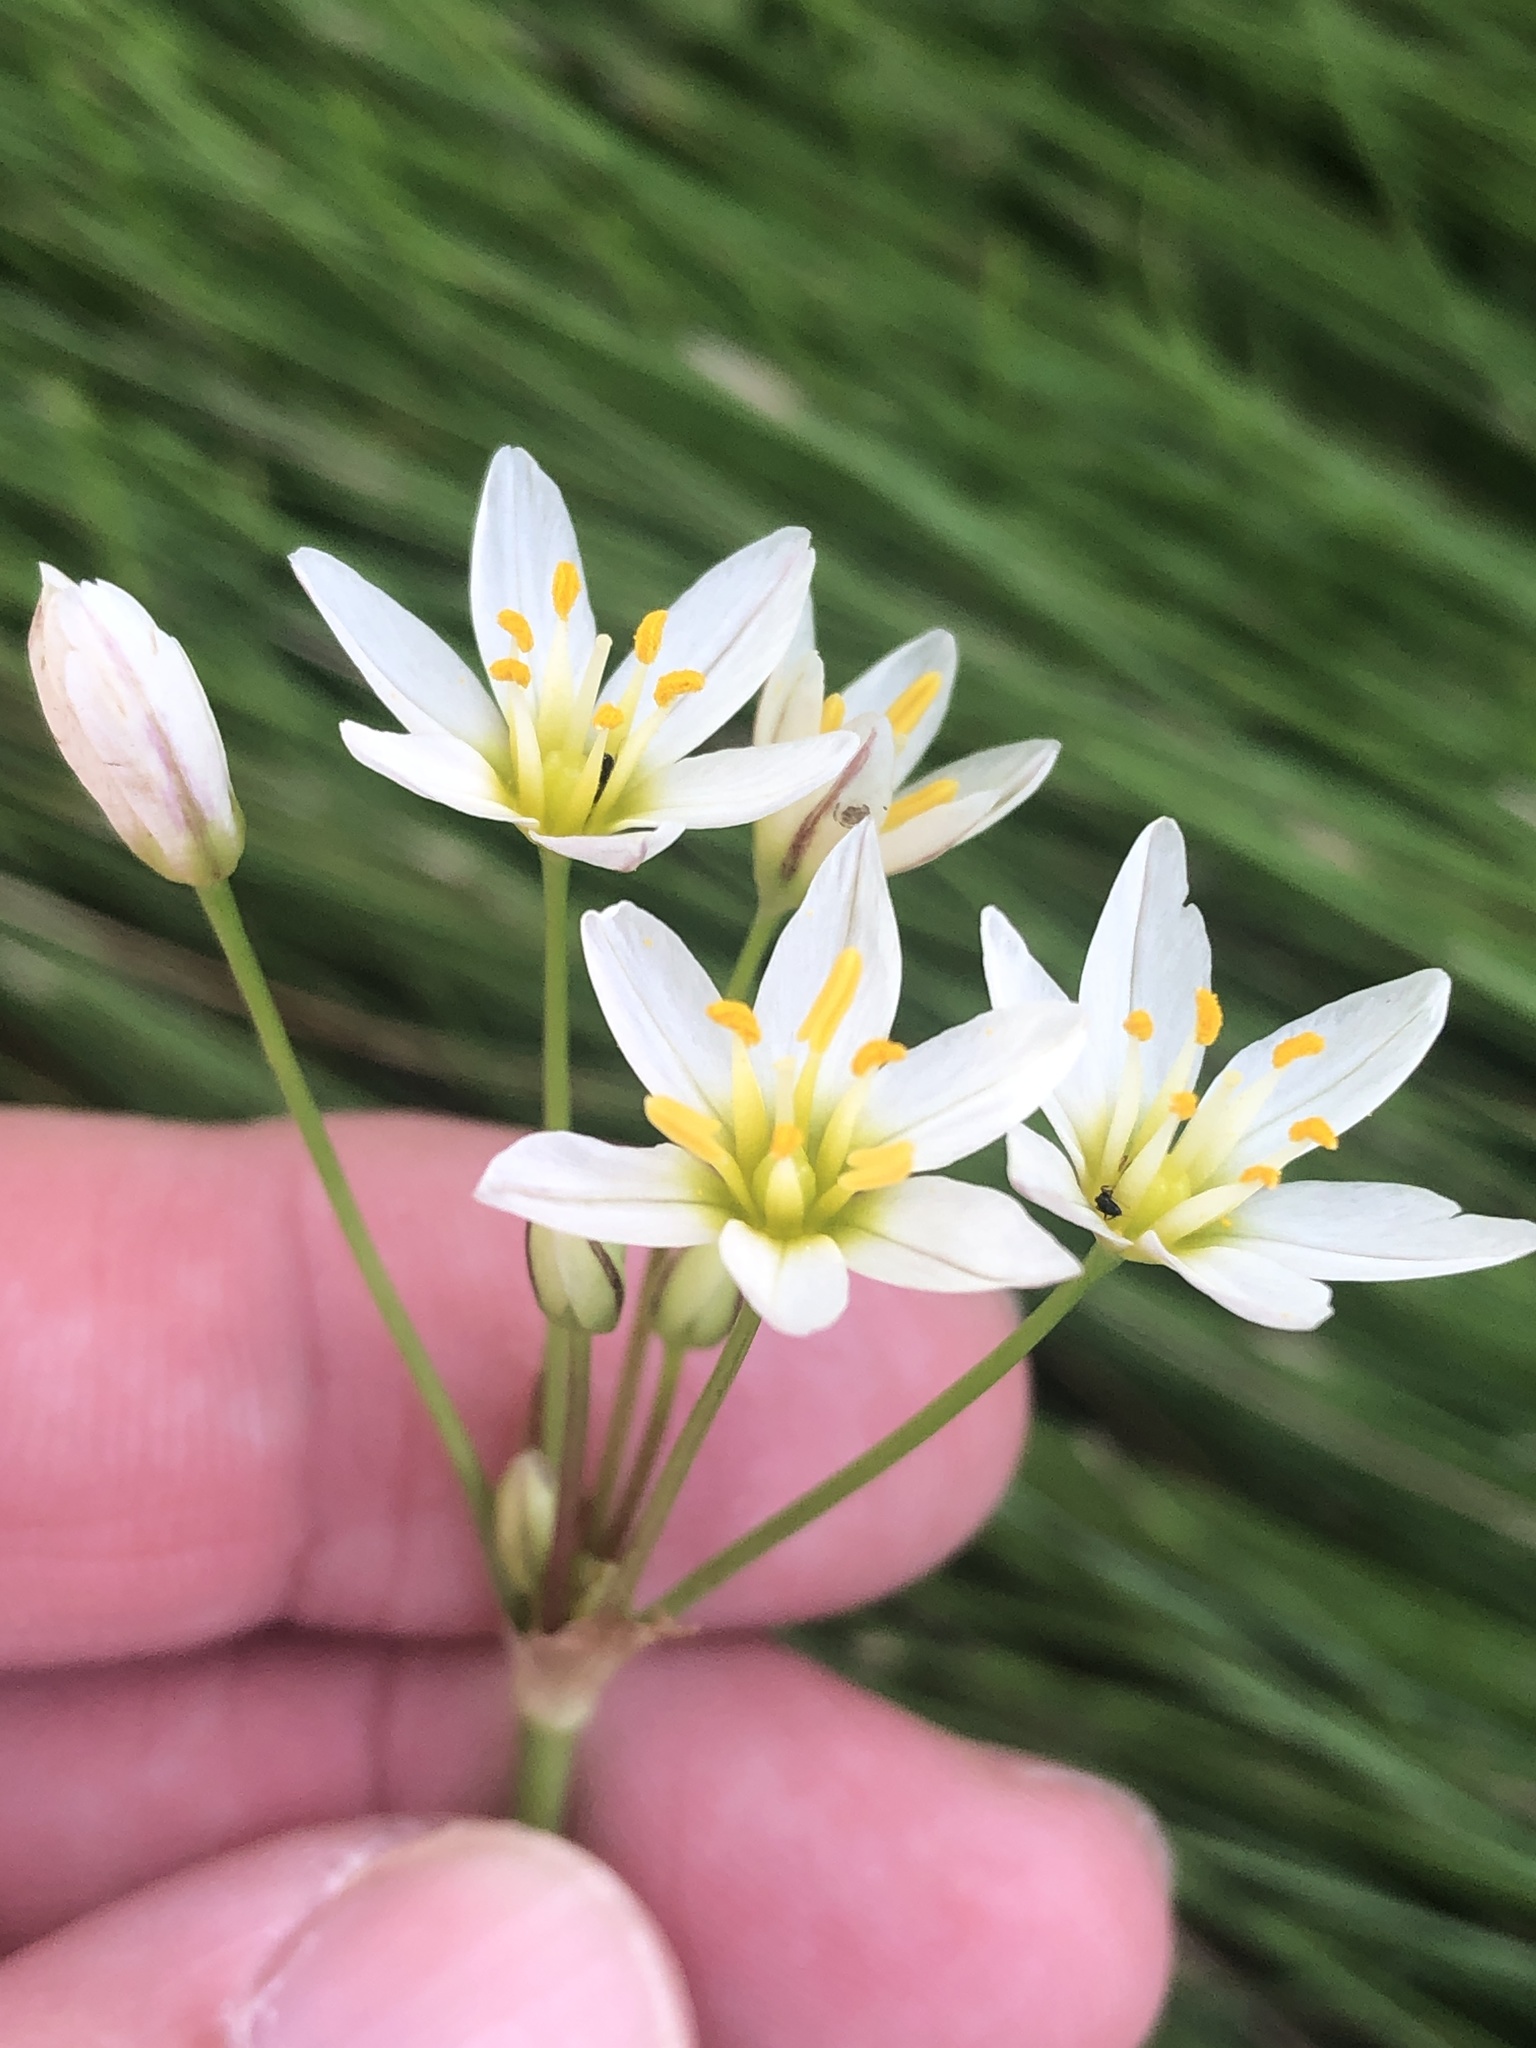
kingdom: Plantae
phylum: Tracheophyta
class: Liliopsida
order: Asparagales
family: Amaryllidaceae
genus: Nothoscordum
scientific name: Nothoscordum bivalve
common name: Crow-poison
